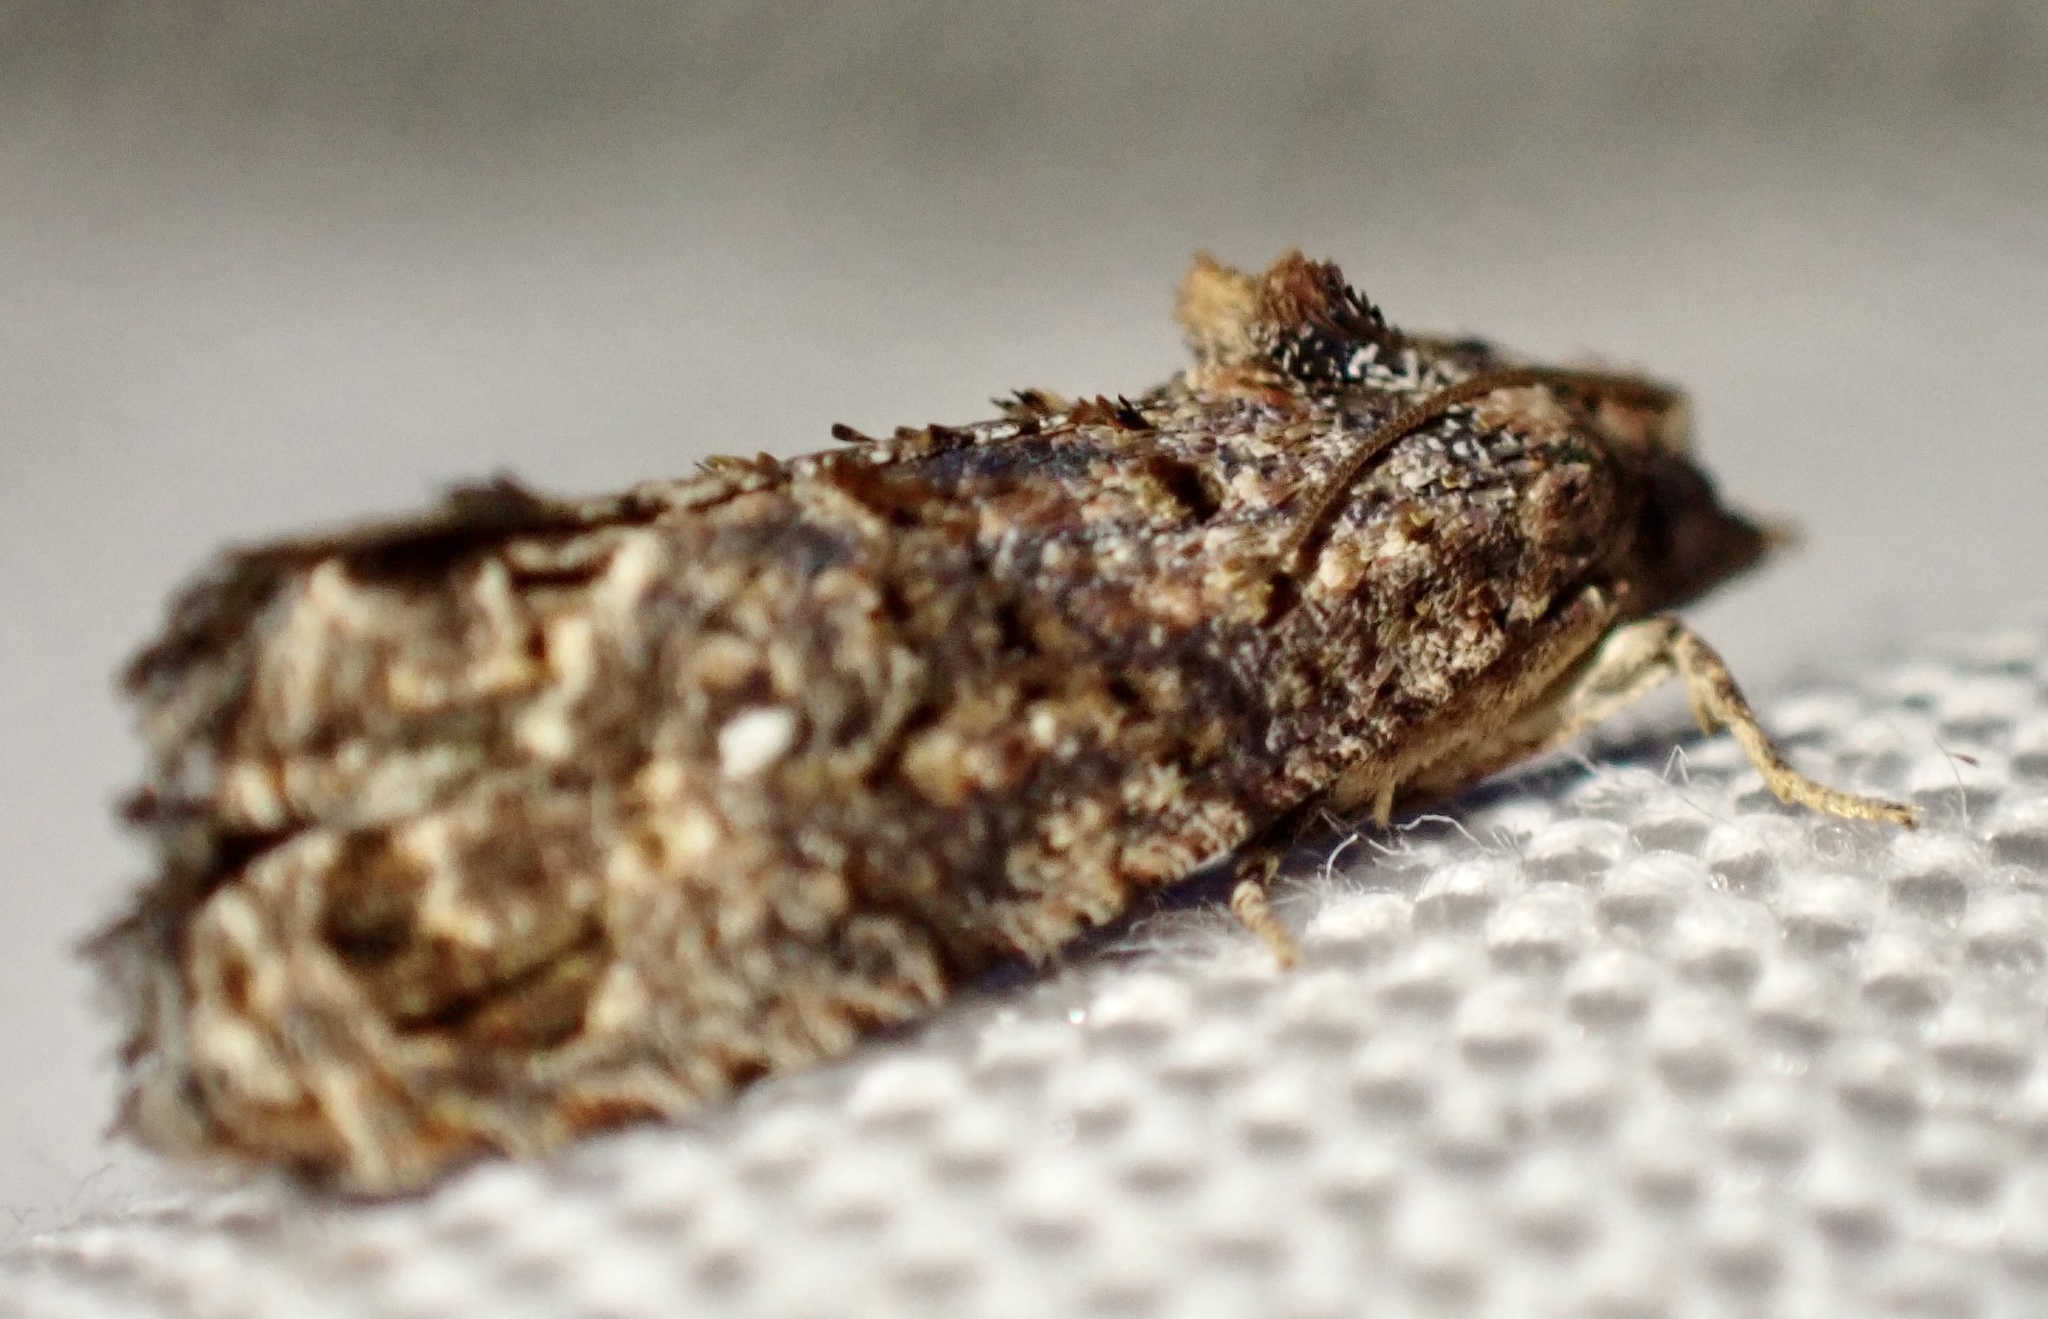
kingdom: Animalia
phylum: Arthropoda
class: Insecta
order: Lepidoptera
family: Tortricidae
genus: Thaumatotibia
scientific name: Thaumatotibia leucotreta
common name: False codling moth
